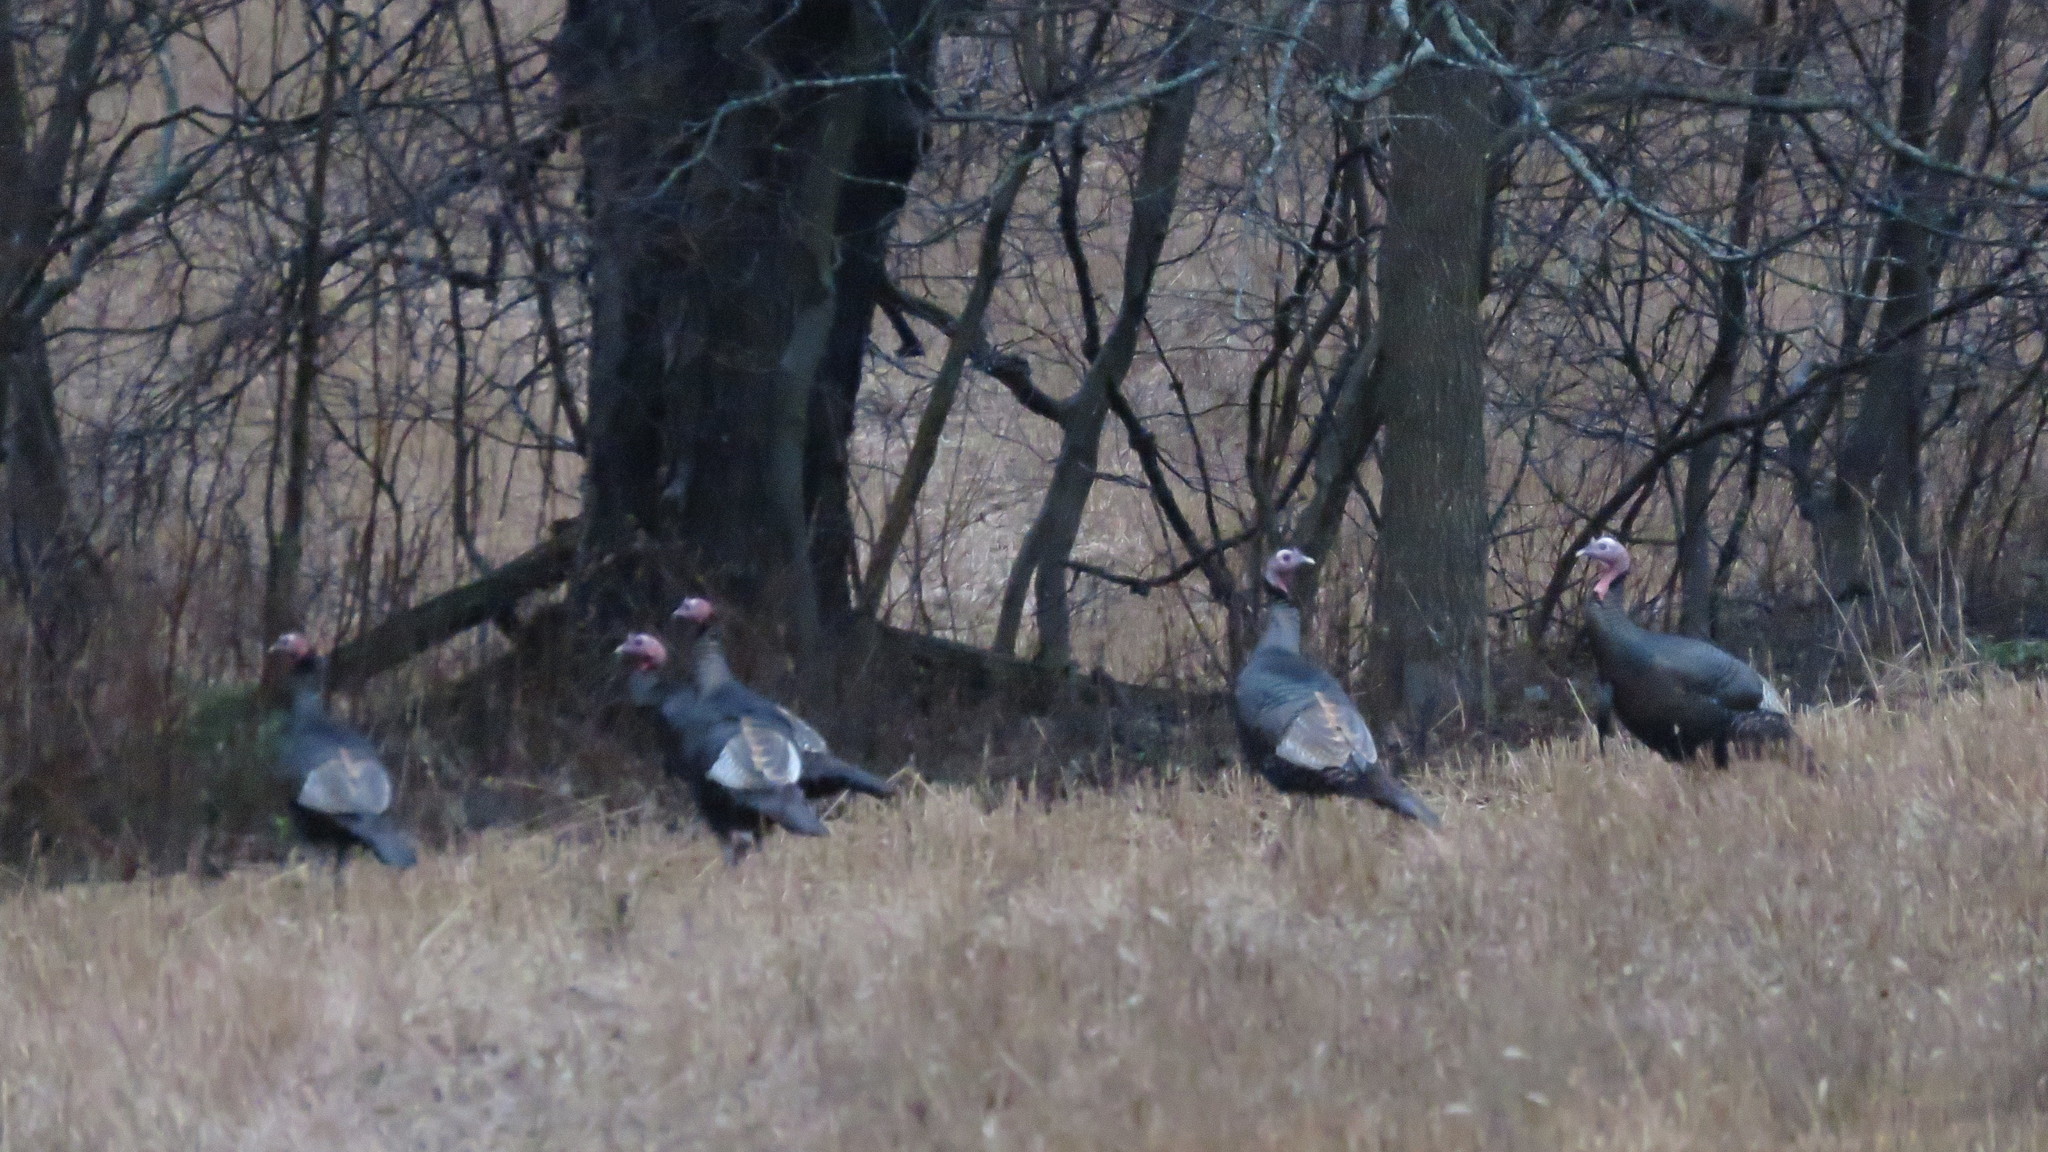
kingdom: Animalia
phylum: Chordata
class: Aves
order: Galliformes
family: Phasianidae
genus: Meleagris
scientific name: Meleagris gallopavo
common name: Wild turkey
